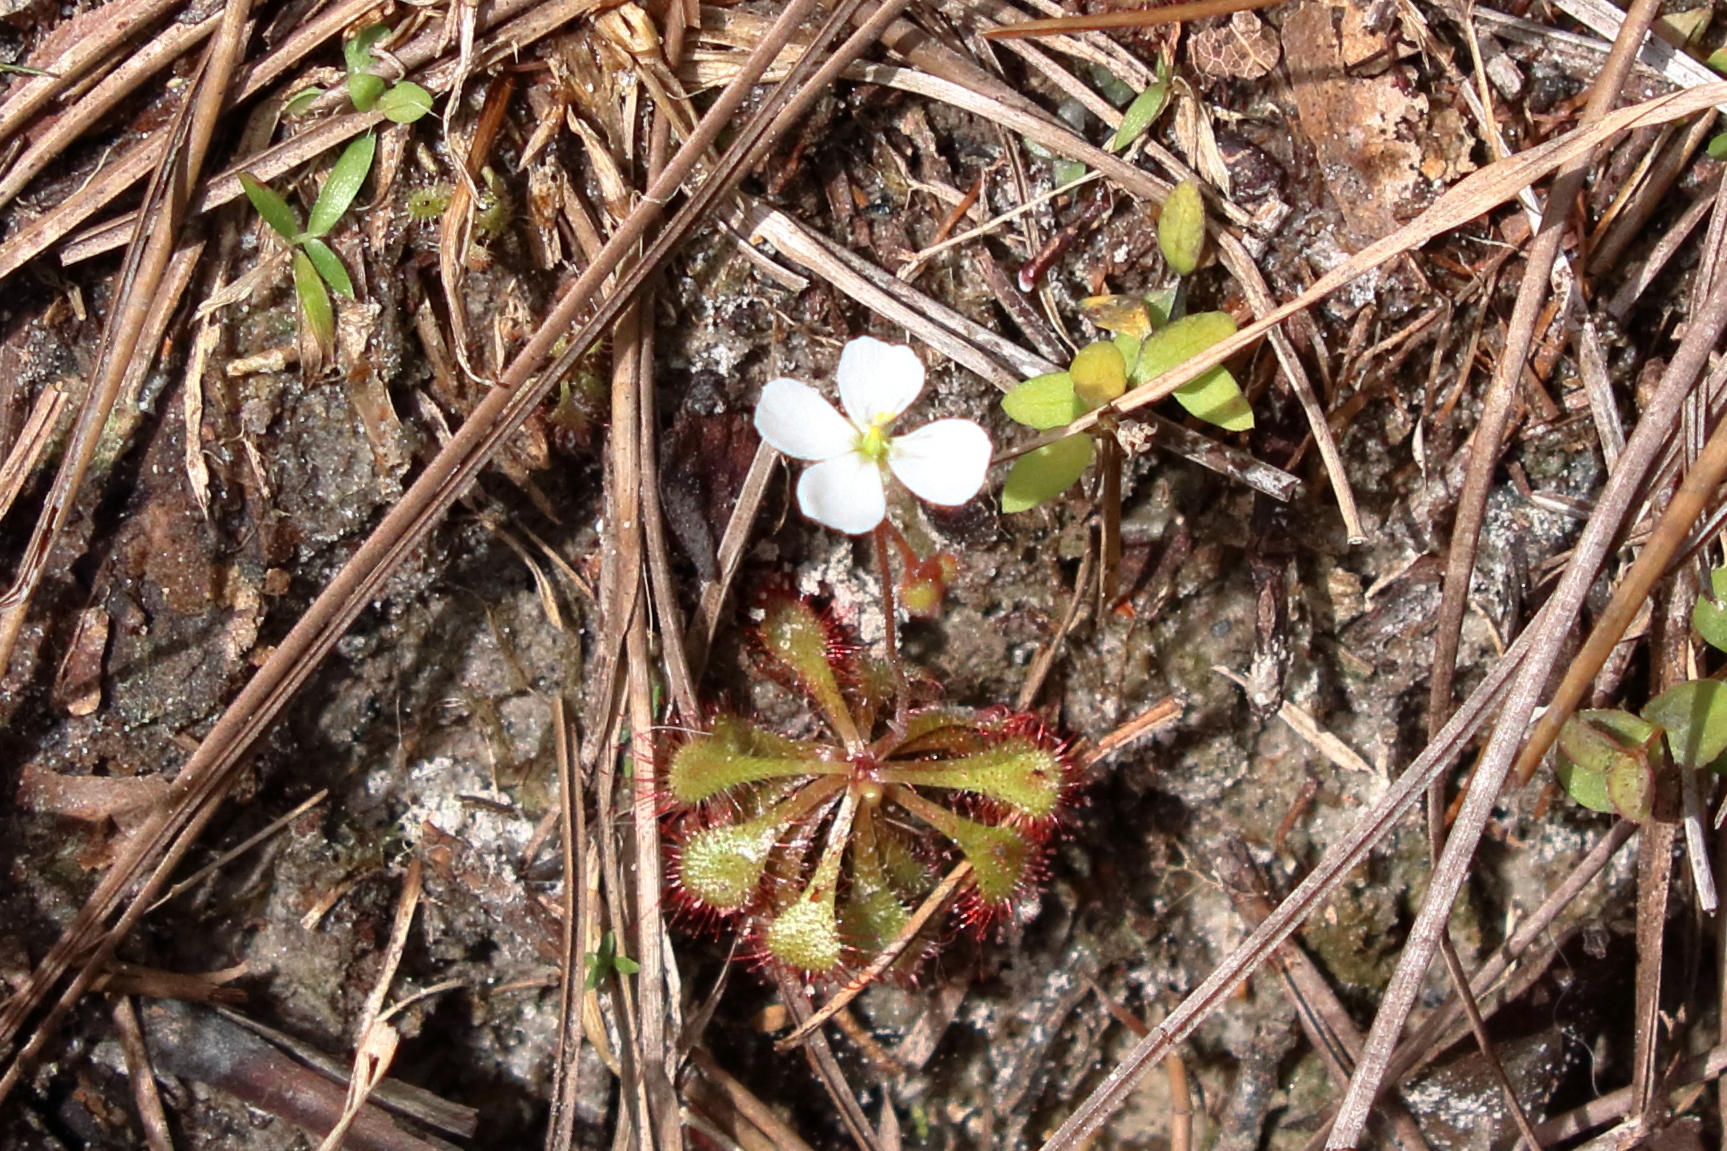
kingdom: Plantae
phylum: Tracheophyta
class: Magnoliopsida
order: Caryophyllales
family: Droseraceae
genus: Drosera
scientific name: Drosera brevifolia
